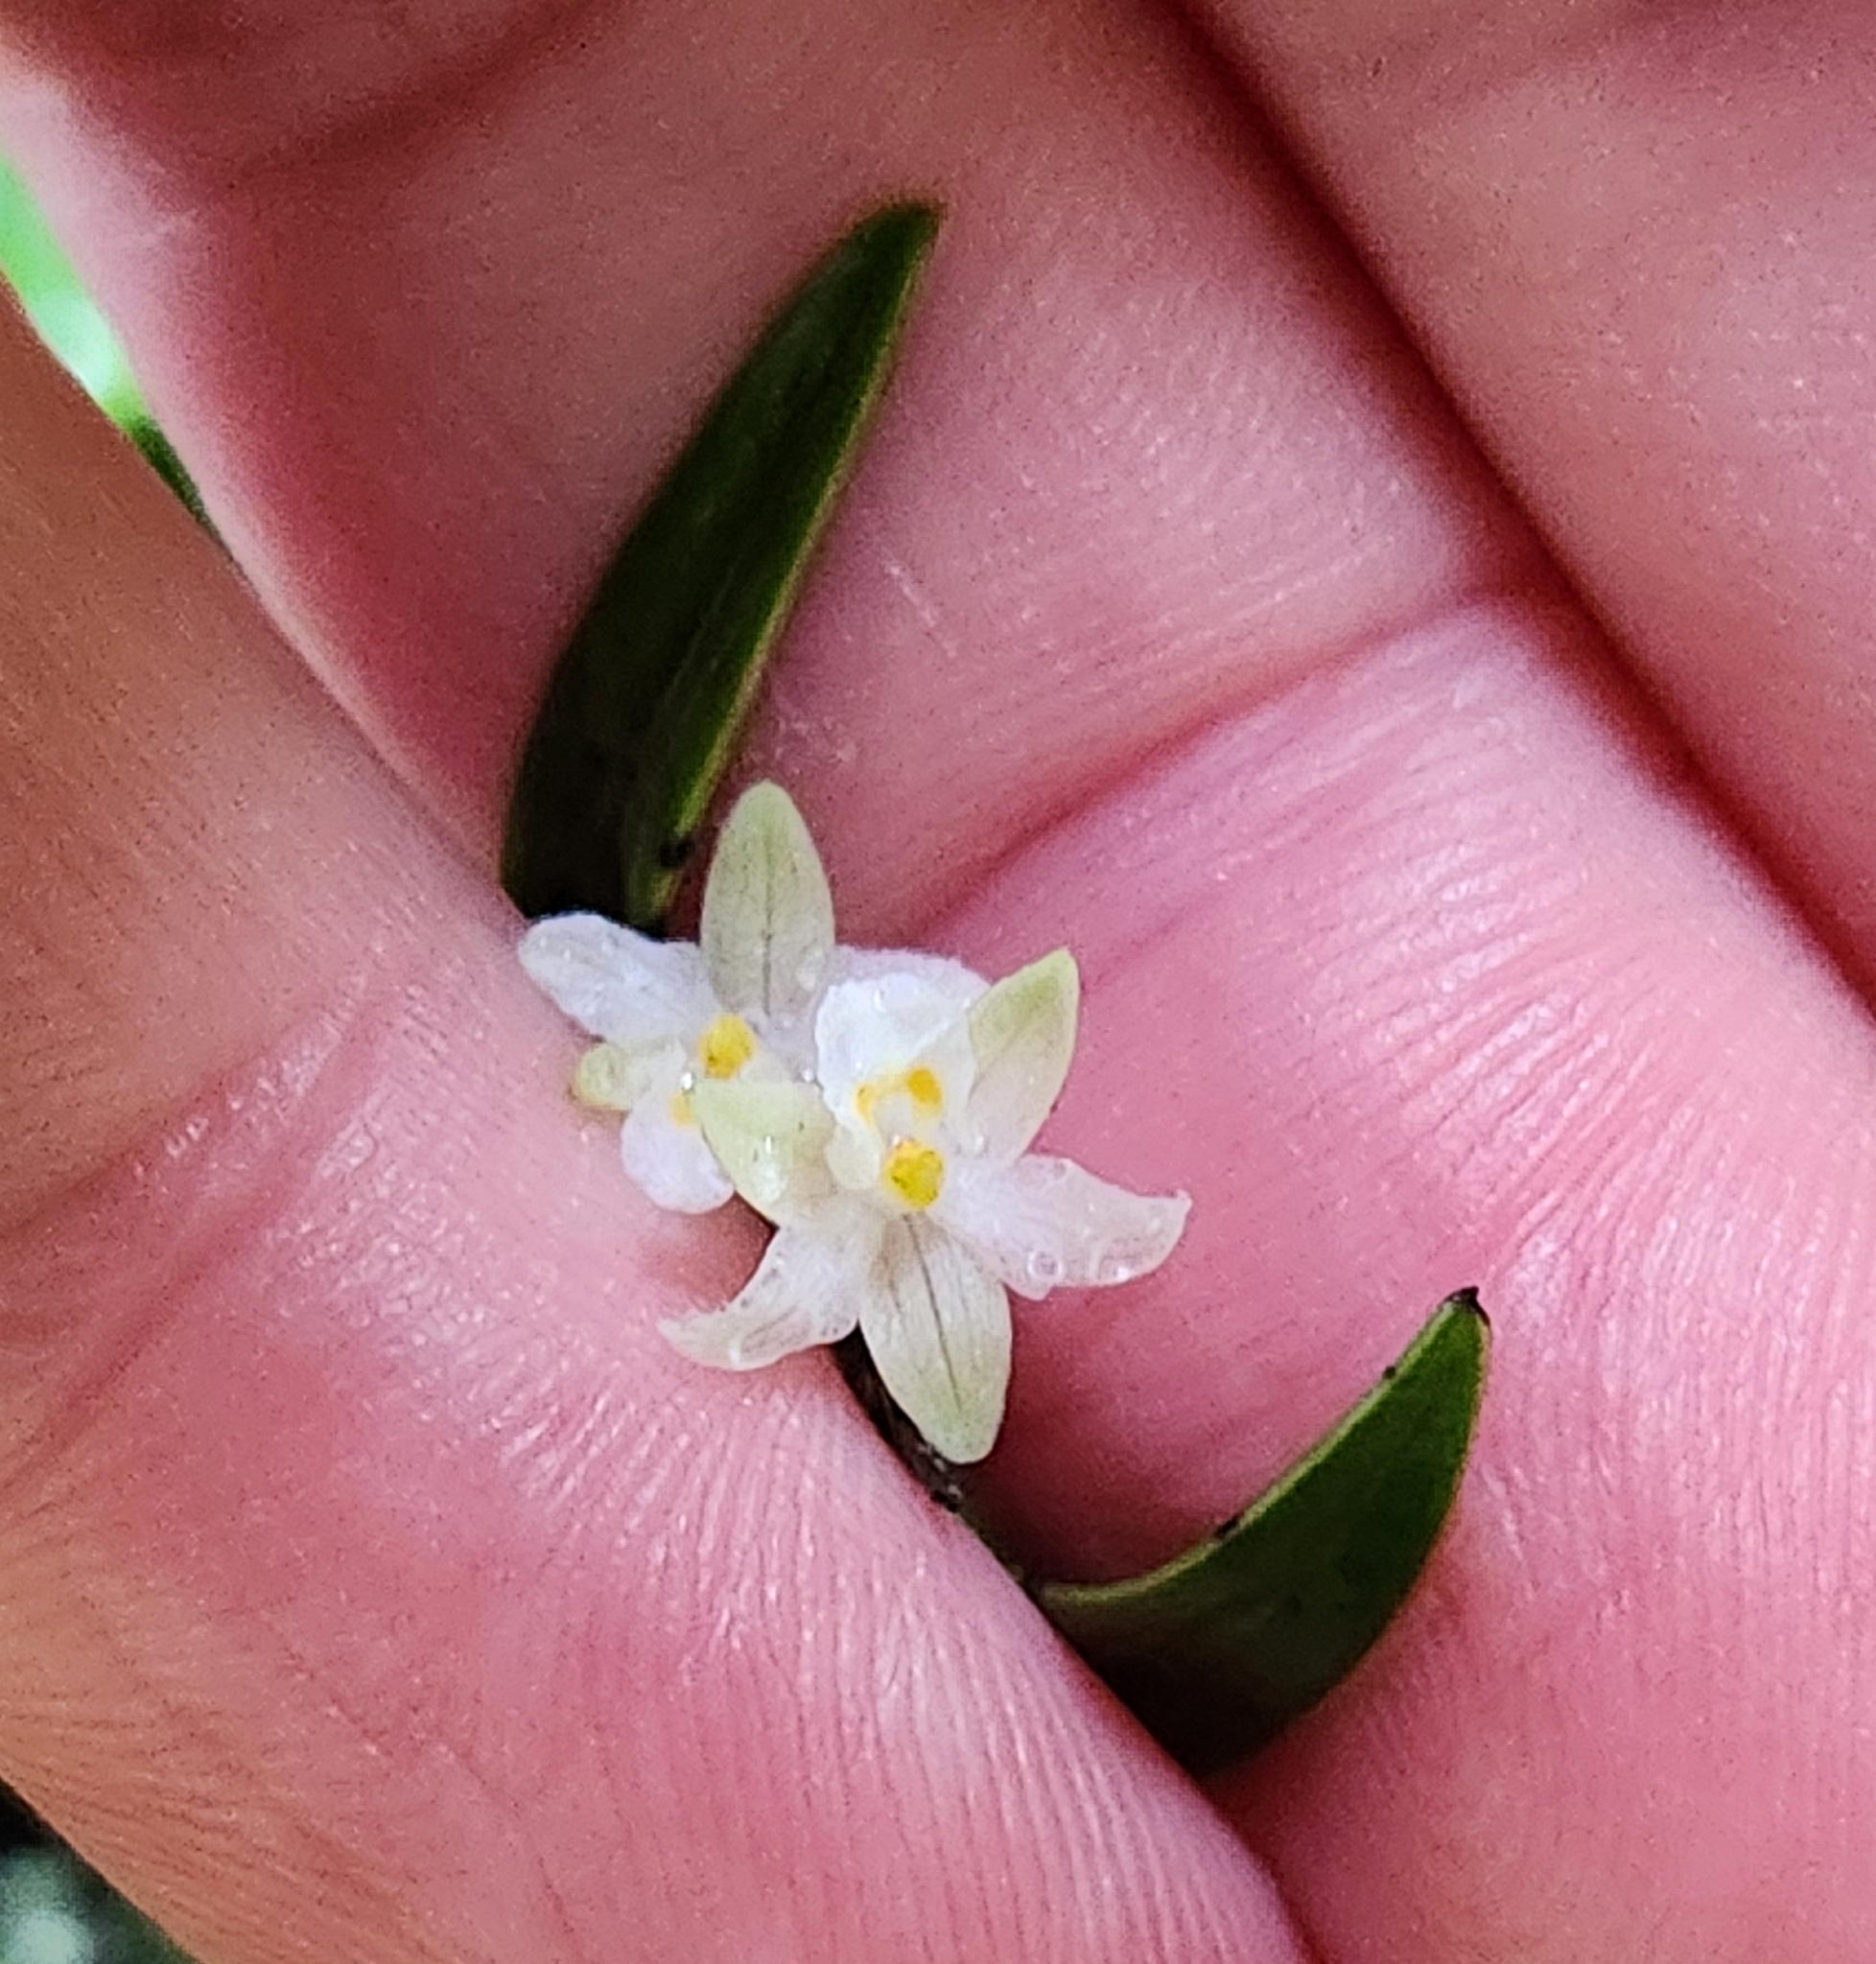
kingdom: Plantae
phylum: Tracheophyta
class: Liliopsida
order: Asparagales
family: Orchidaceae
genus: Earina
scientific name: Earina autumnalis
